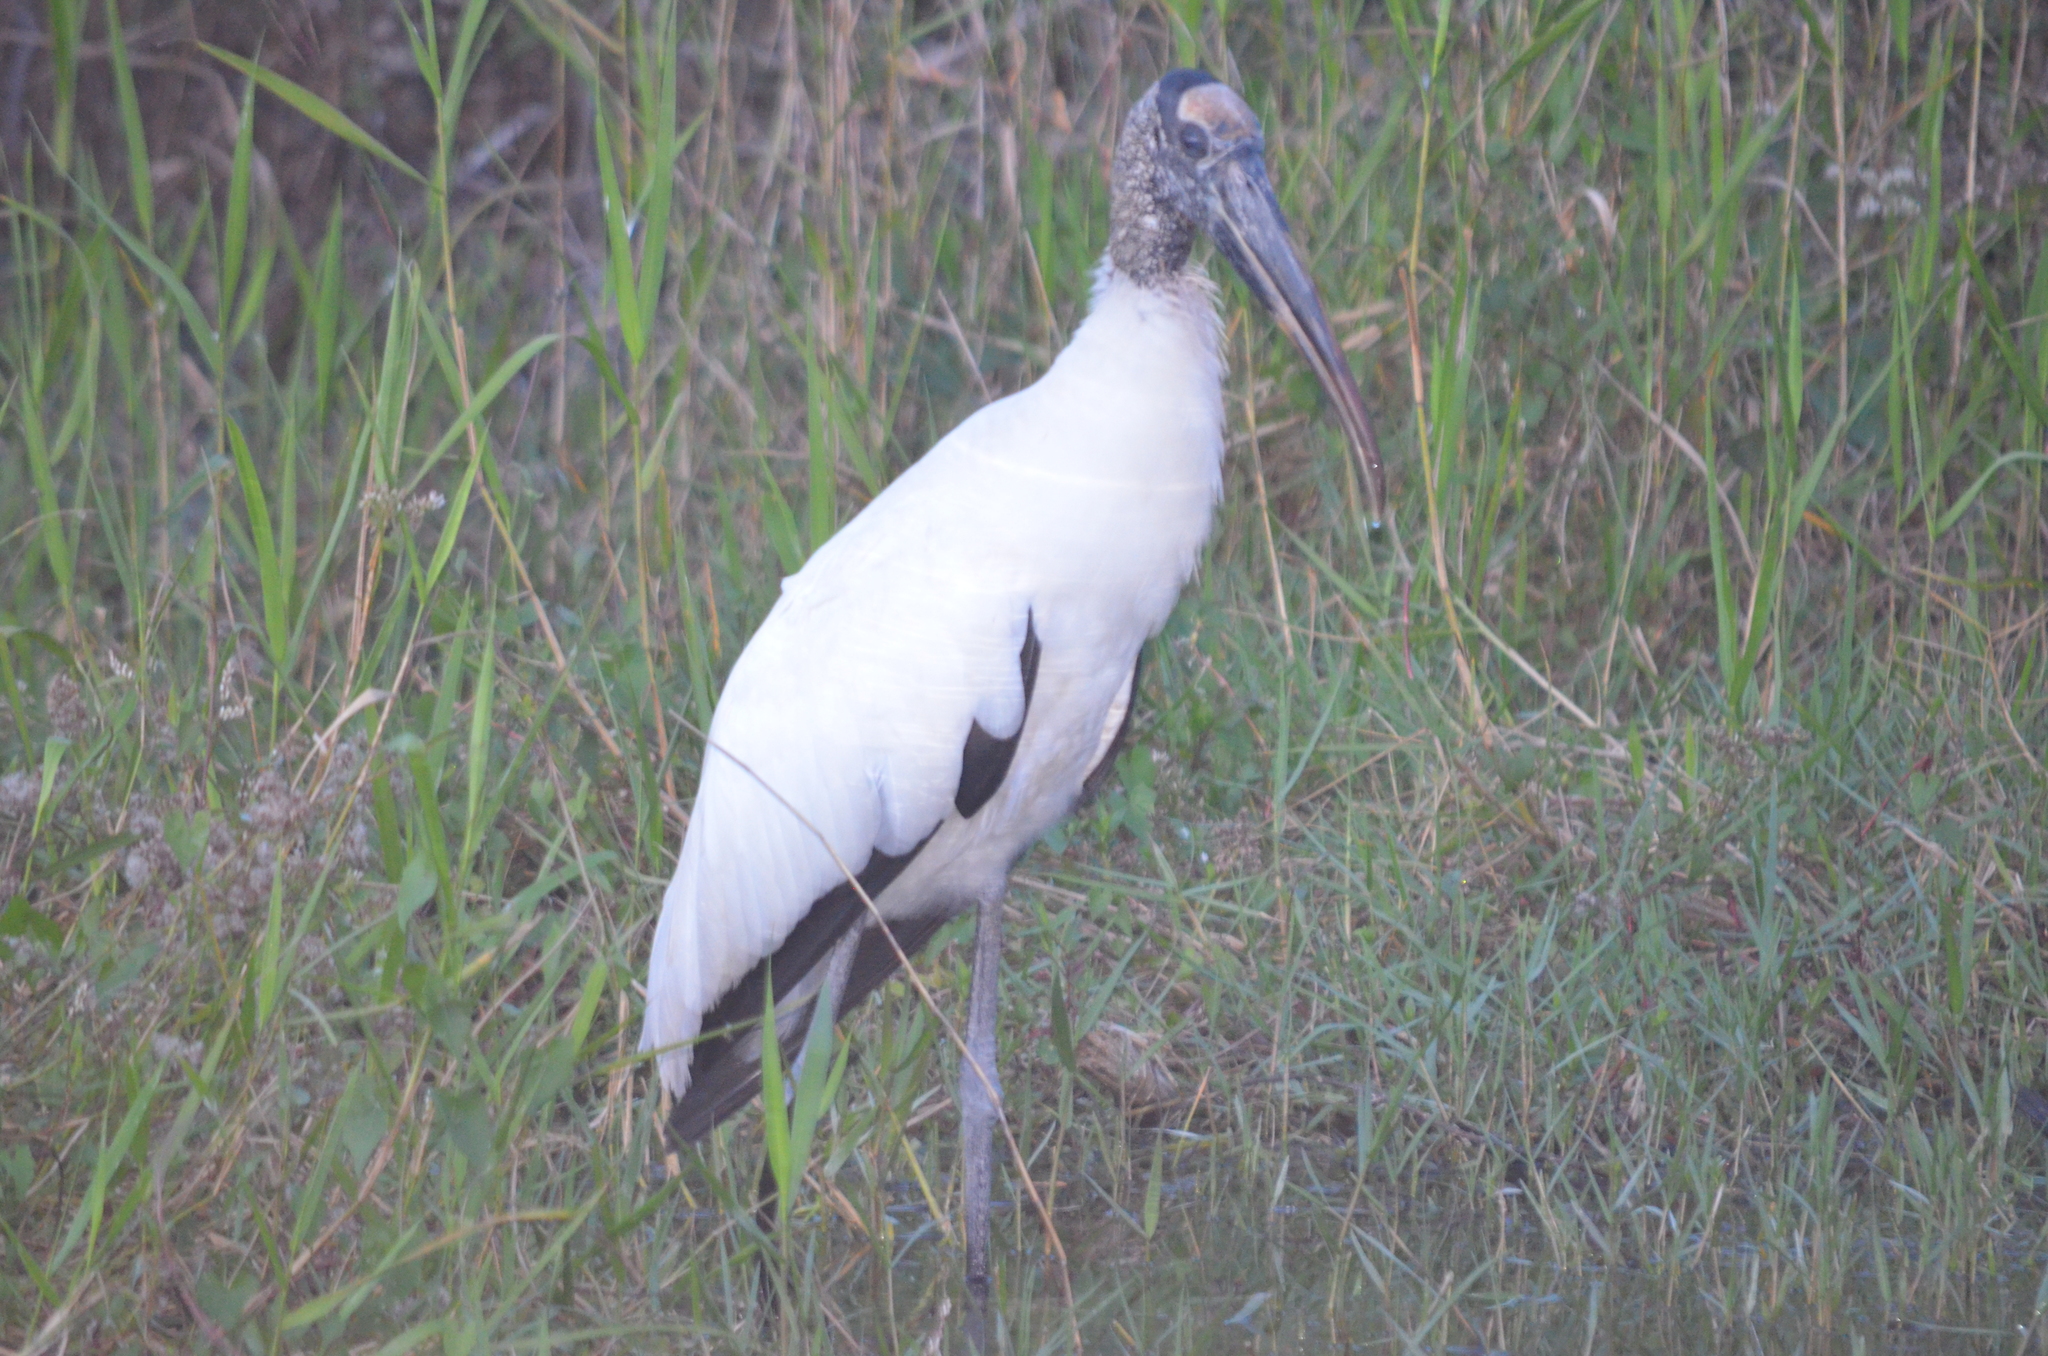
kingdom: Animalia
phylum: Chordata
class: Aves
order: Ciconiiformes
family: Ciconiidae
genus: Mycteria
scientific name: Mycteria americana
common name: Wood stork
